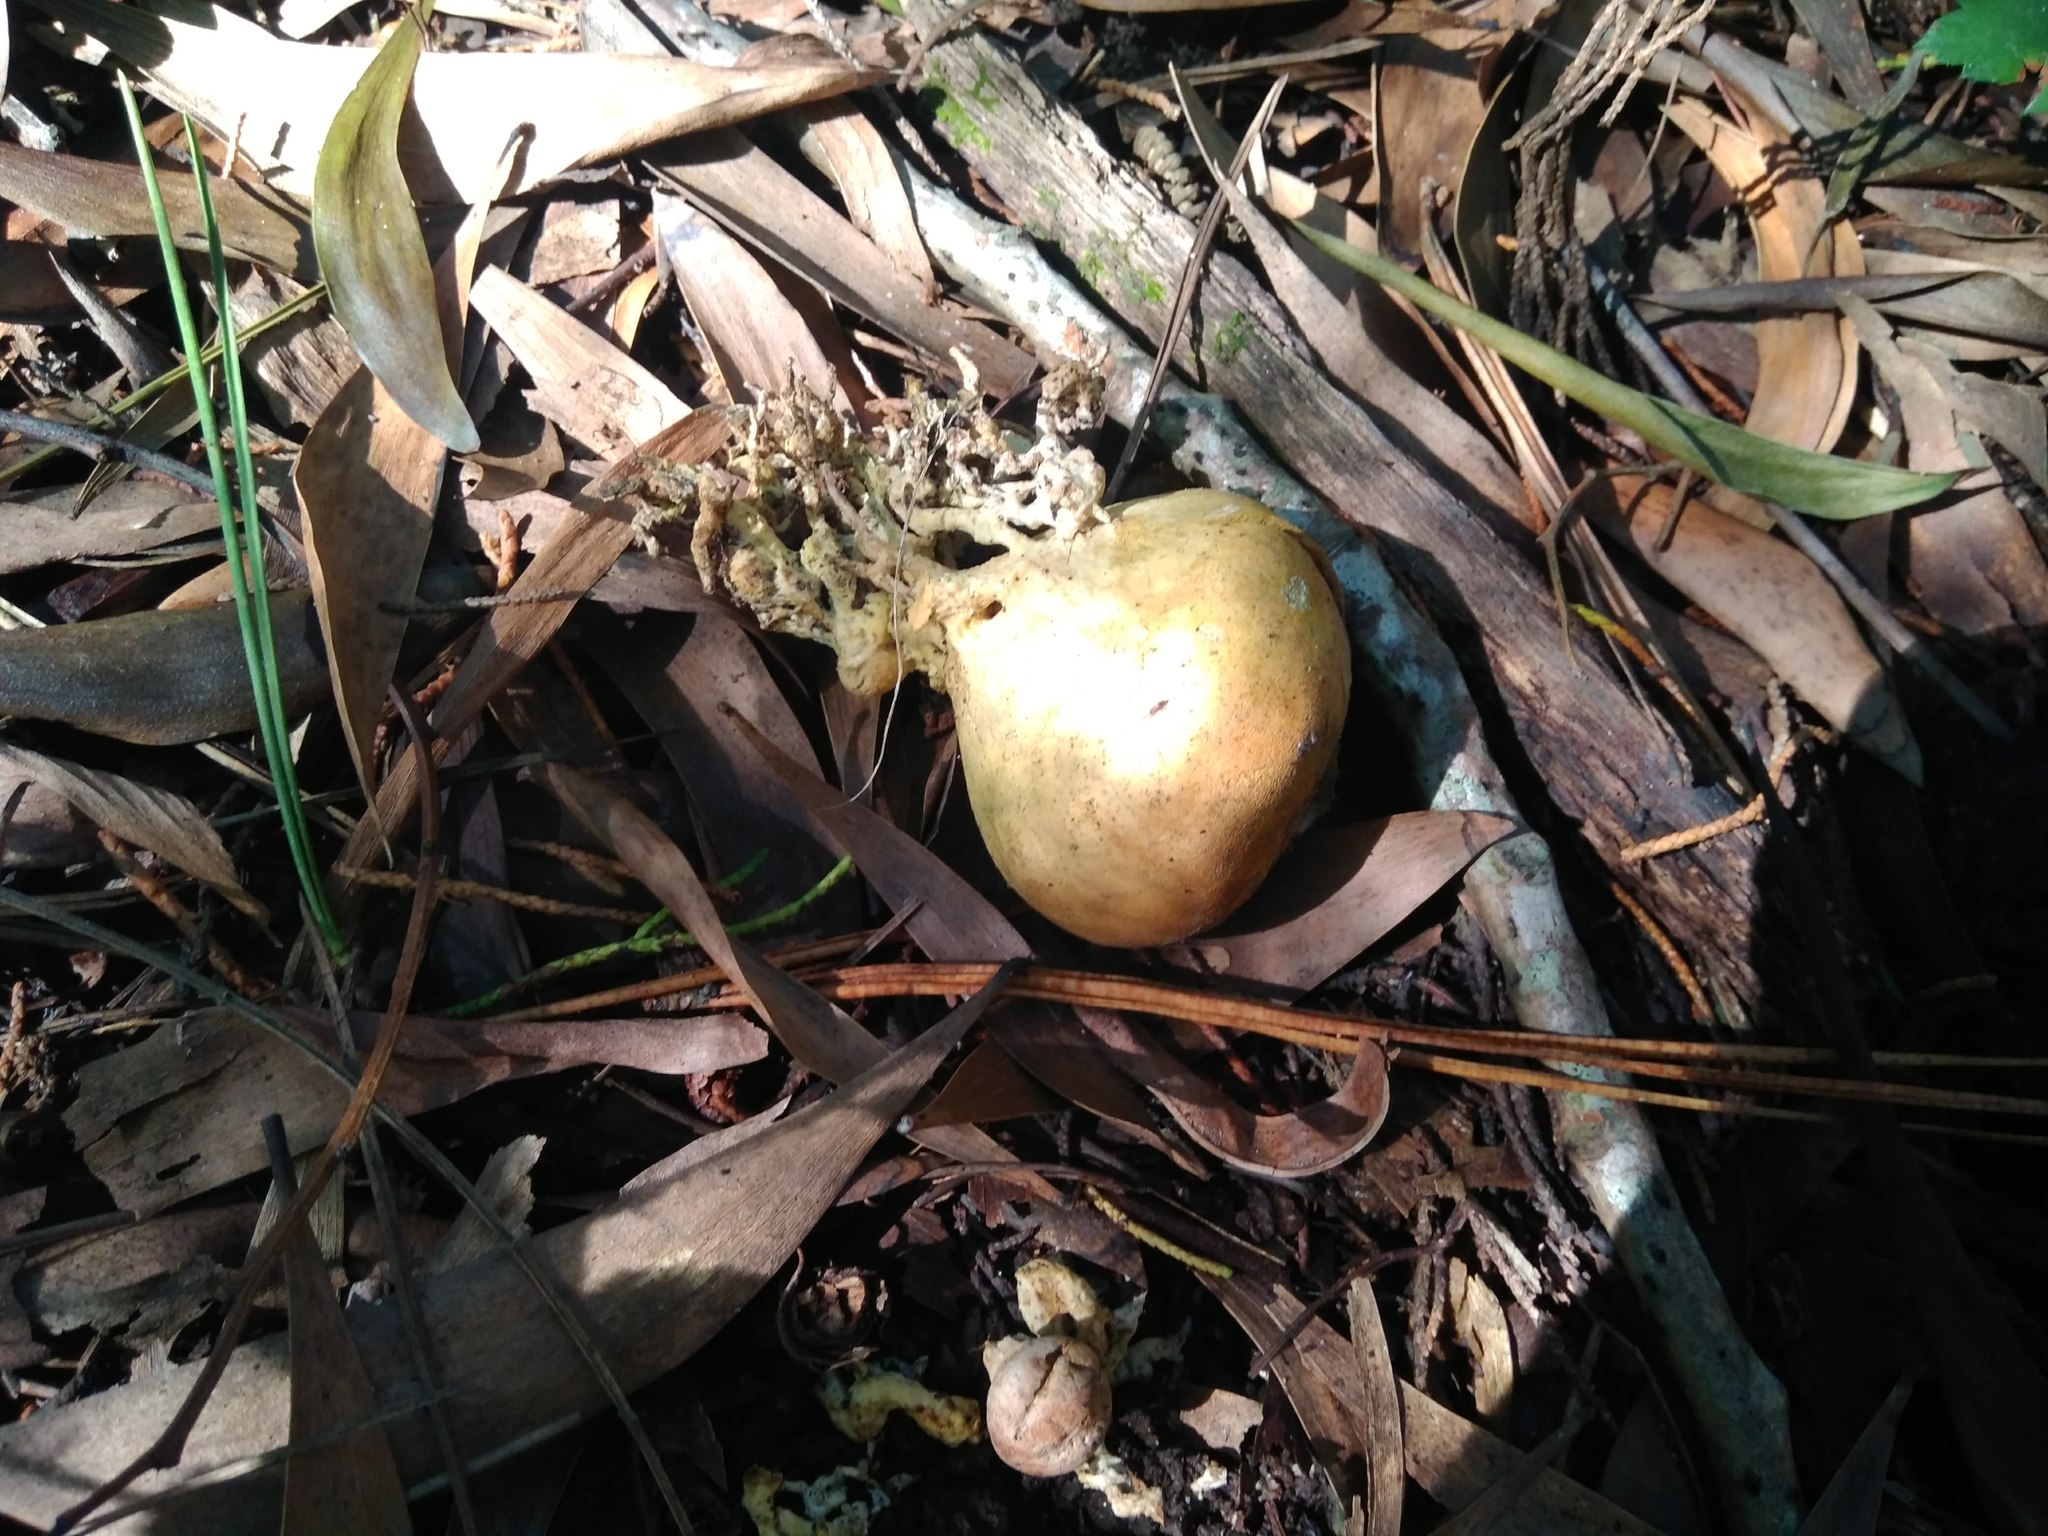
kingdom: Fungi
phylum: Basidiomycota
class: Agaricomycetes
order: Boletales
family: Sclerodermataceae
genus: Scleroderma
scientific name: Scleroderma citrinum
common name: Common earthball
